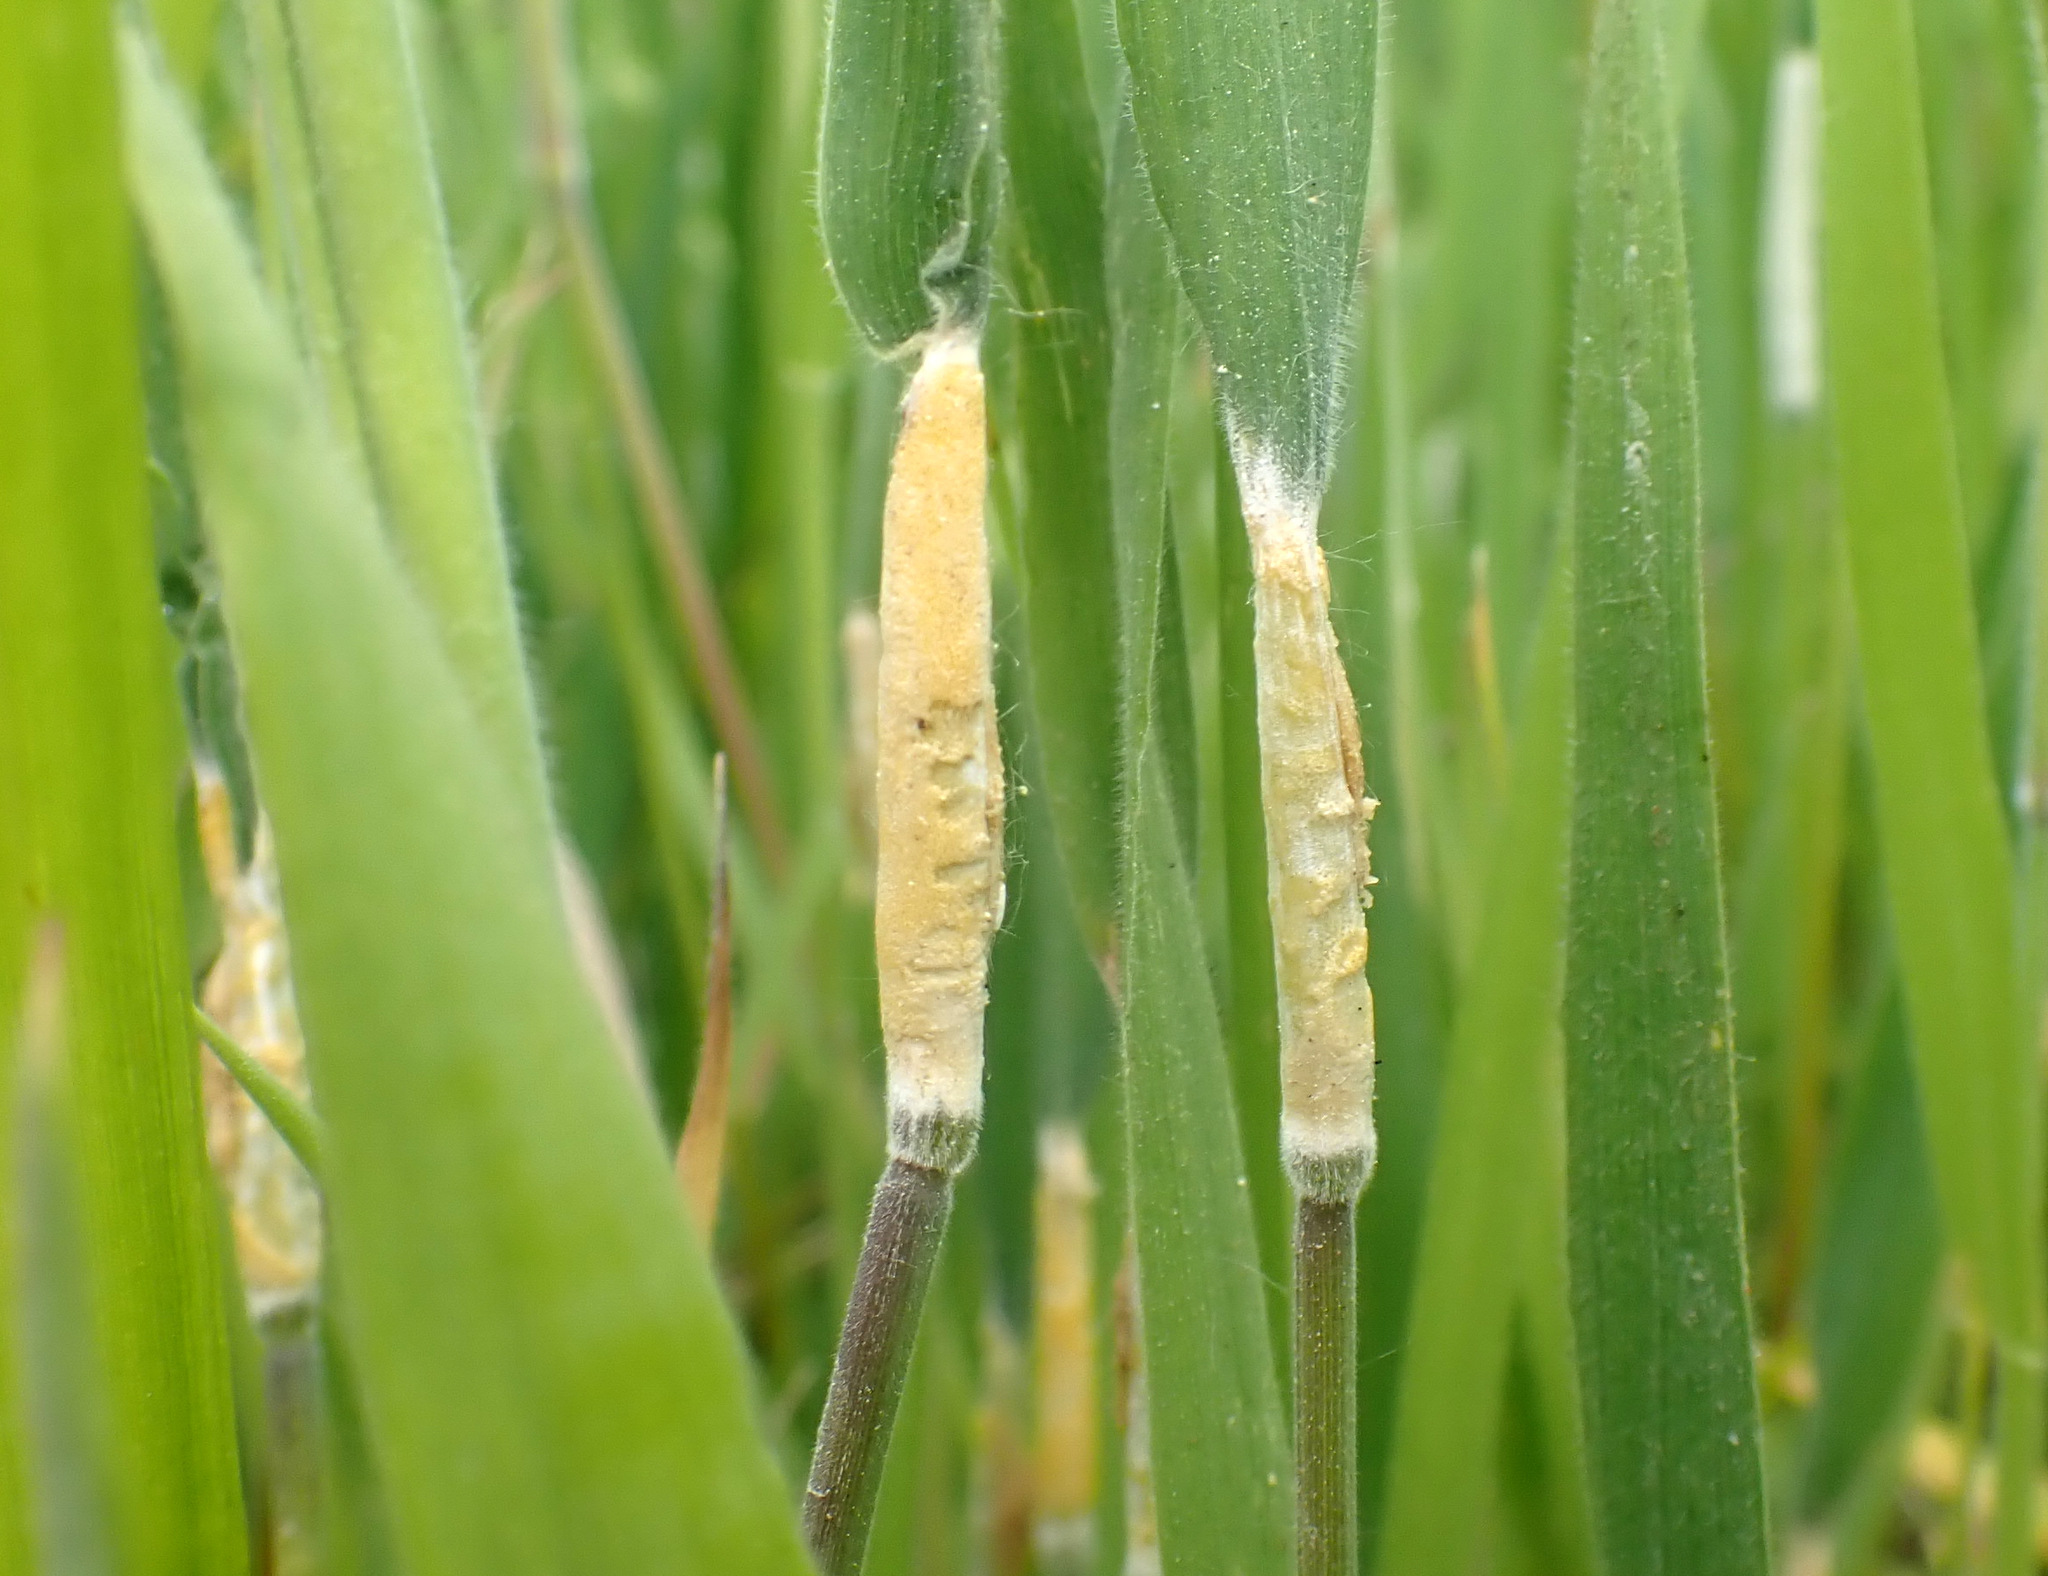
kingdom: Fungi
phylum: Ascomycota
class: Sordariomycetes
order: Hypocreales
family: Clavicipitaceae
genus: Epichloe
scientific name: Epichloe clarkii
